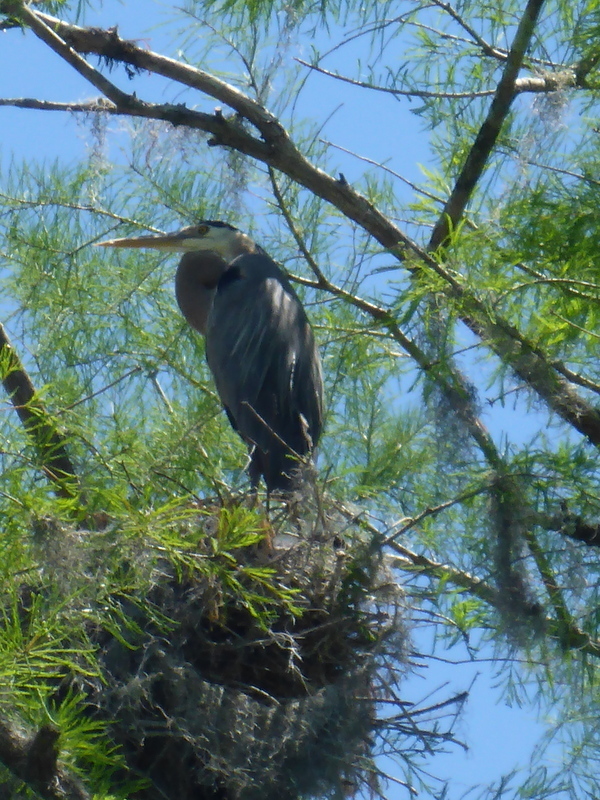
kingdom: Animalia
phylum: Chordata
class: Aves
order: Pelecaniformes
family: Ardeidae
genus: Ardea
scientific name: Ardea herodias
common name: Great blue heron
